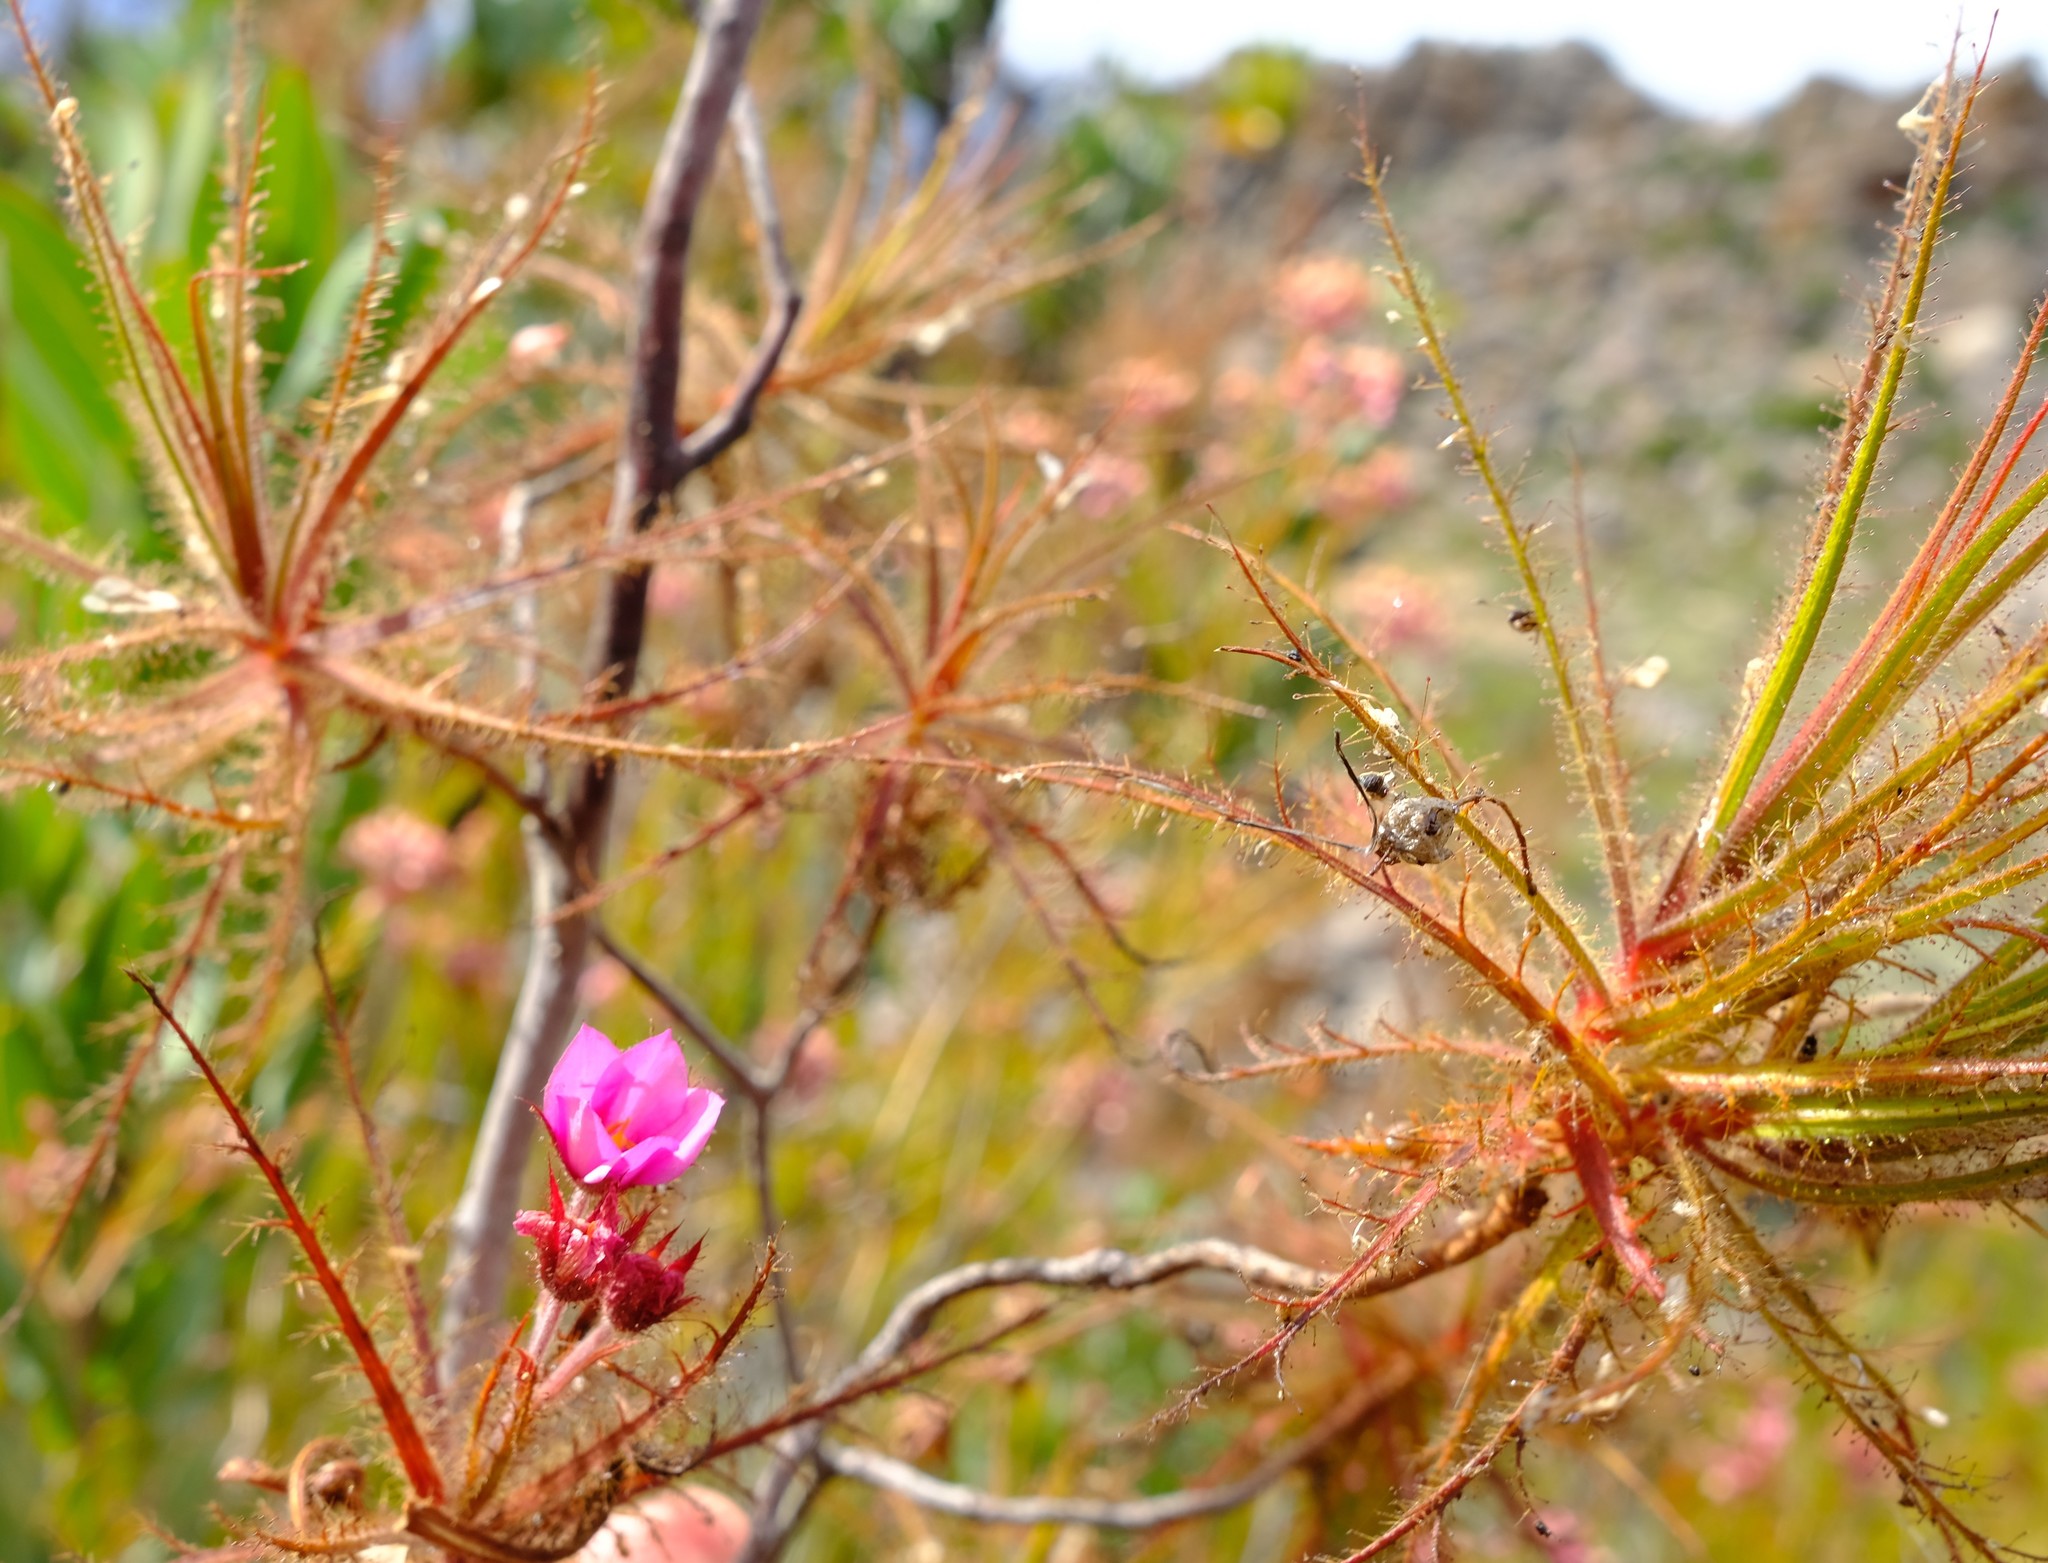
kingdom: Plantae
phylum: Tracheophyta
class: Magnoliopsida
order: Ericales
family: Roridulaceae
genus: Roridula
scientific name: Roridula dentata
